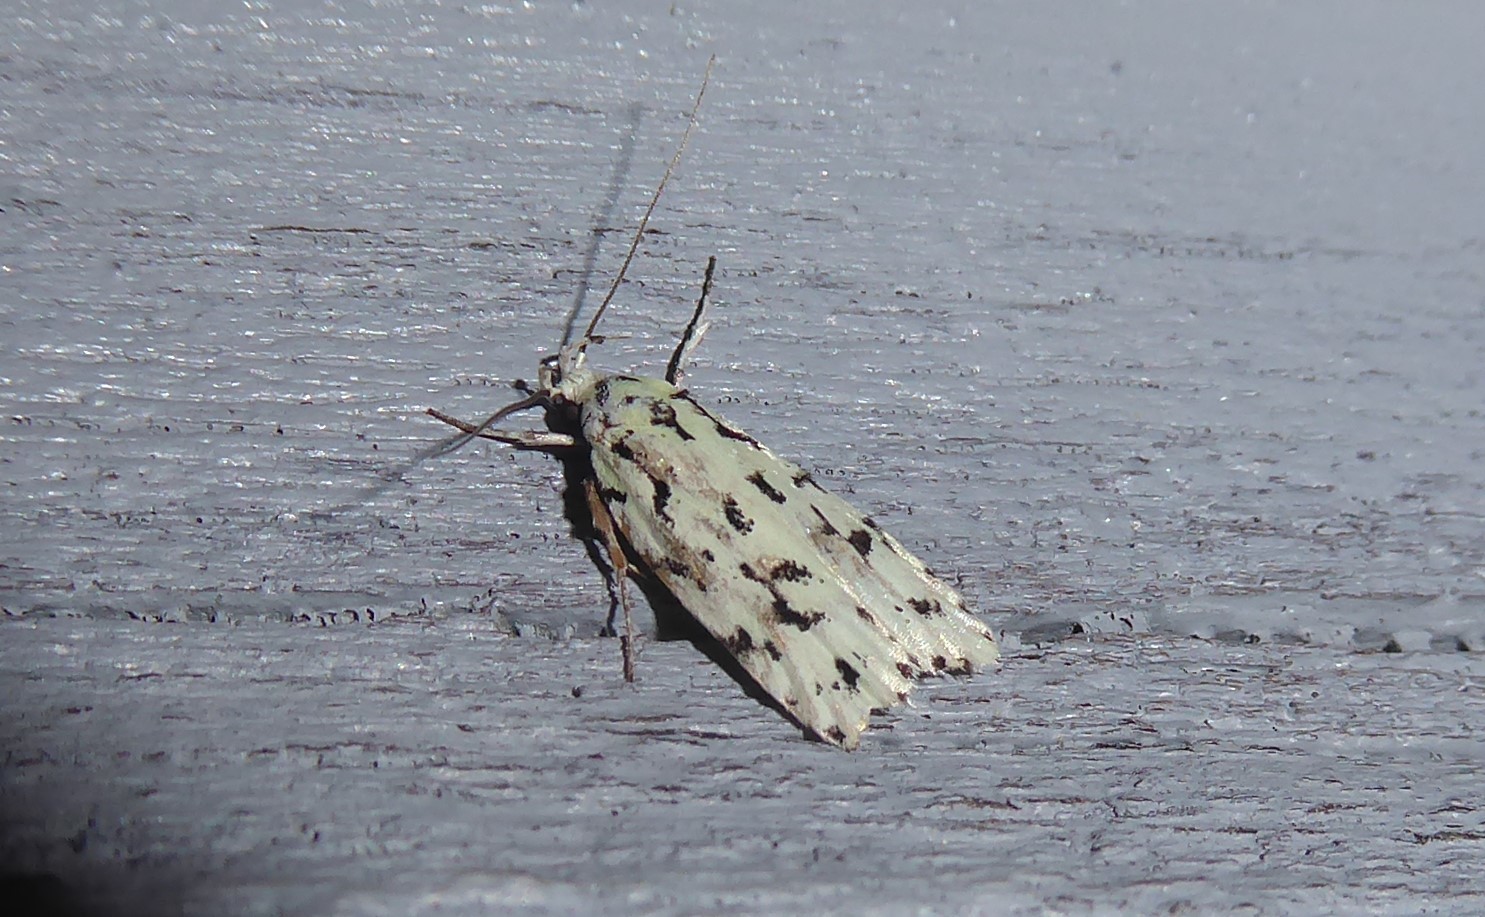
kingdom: Animalia
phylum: Arthropoda
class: Insecta
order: Lepidoptera
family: Oecophoridae
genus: Izatha
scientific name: Izatha huttoni
